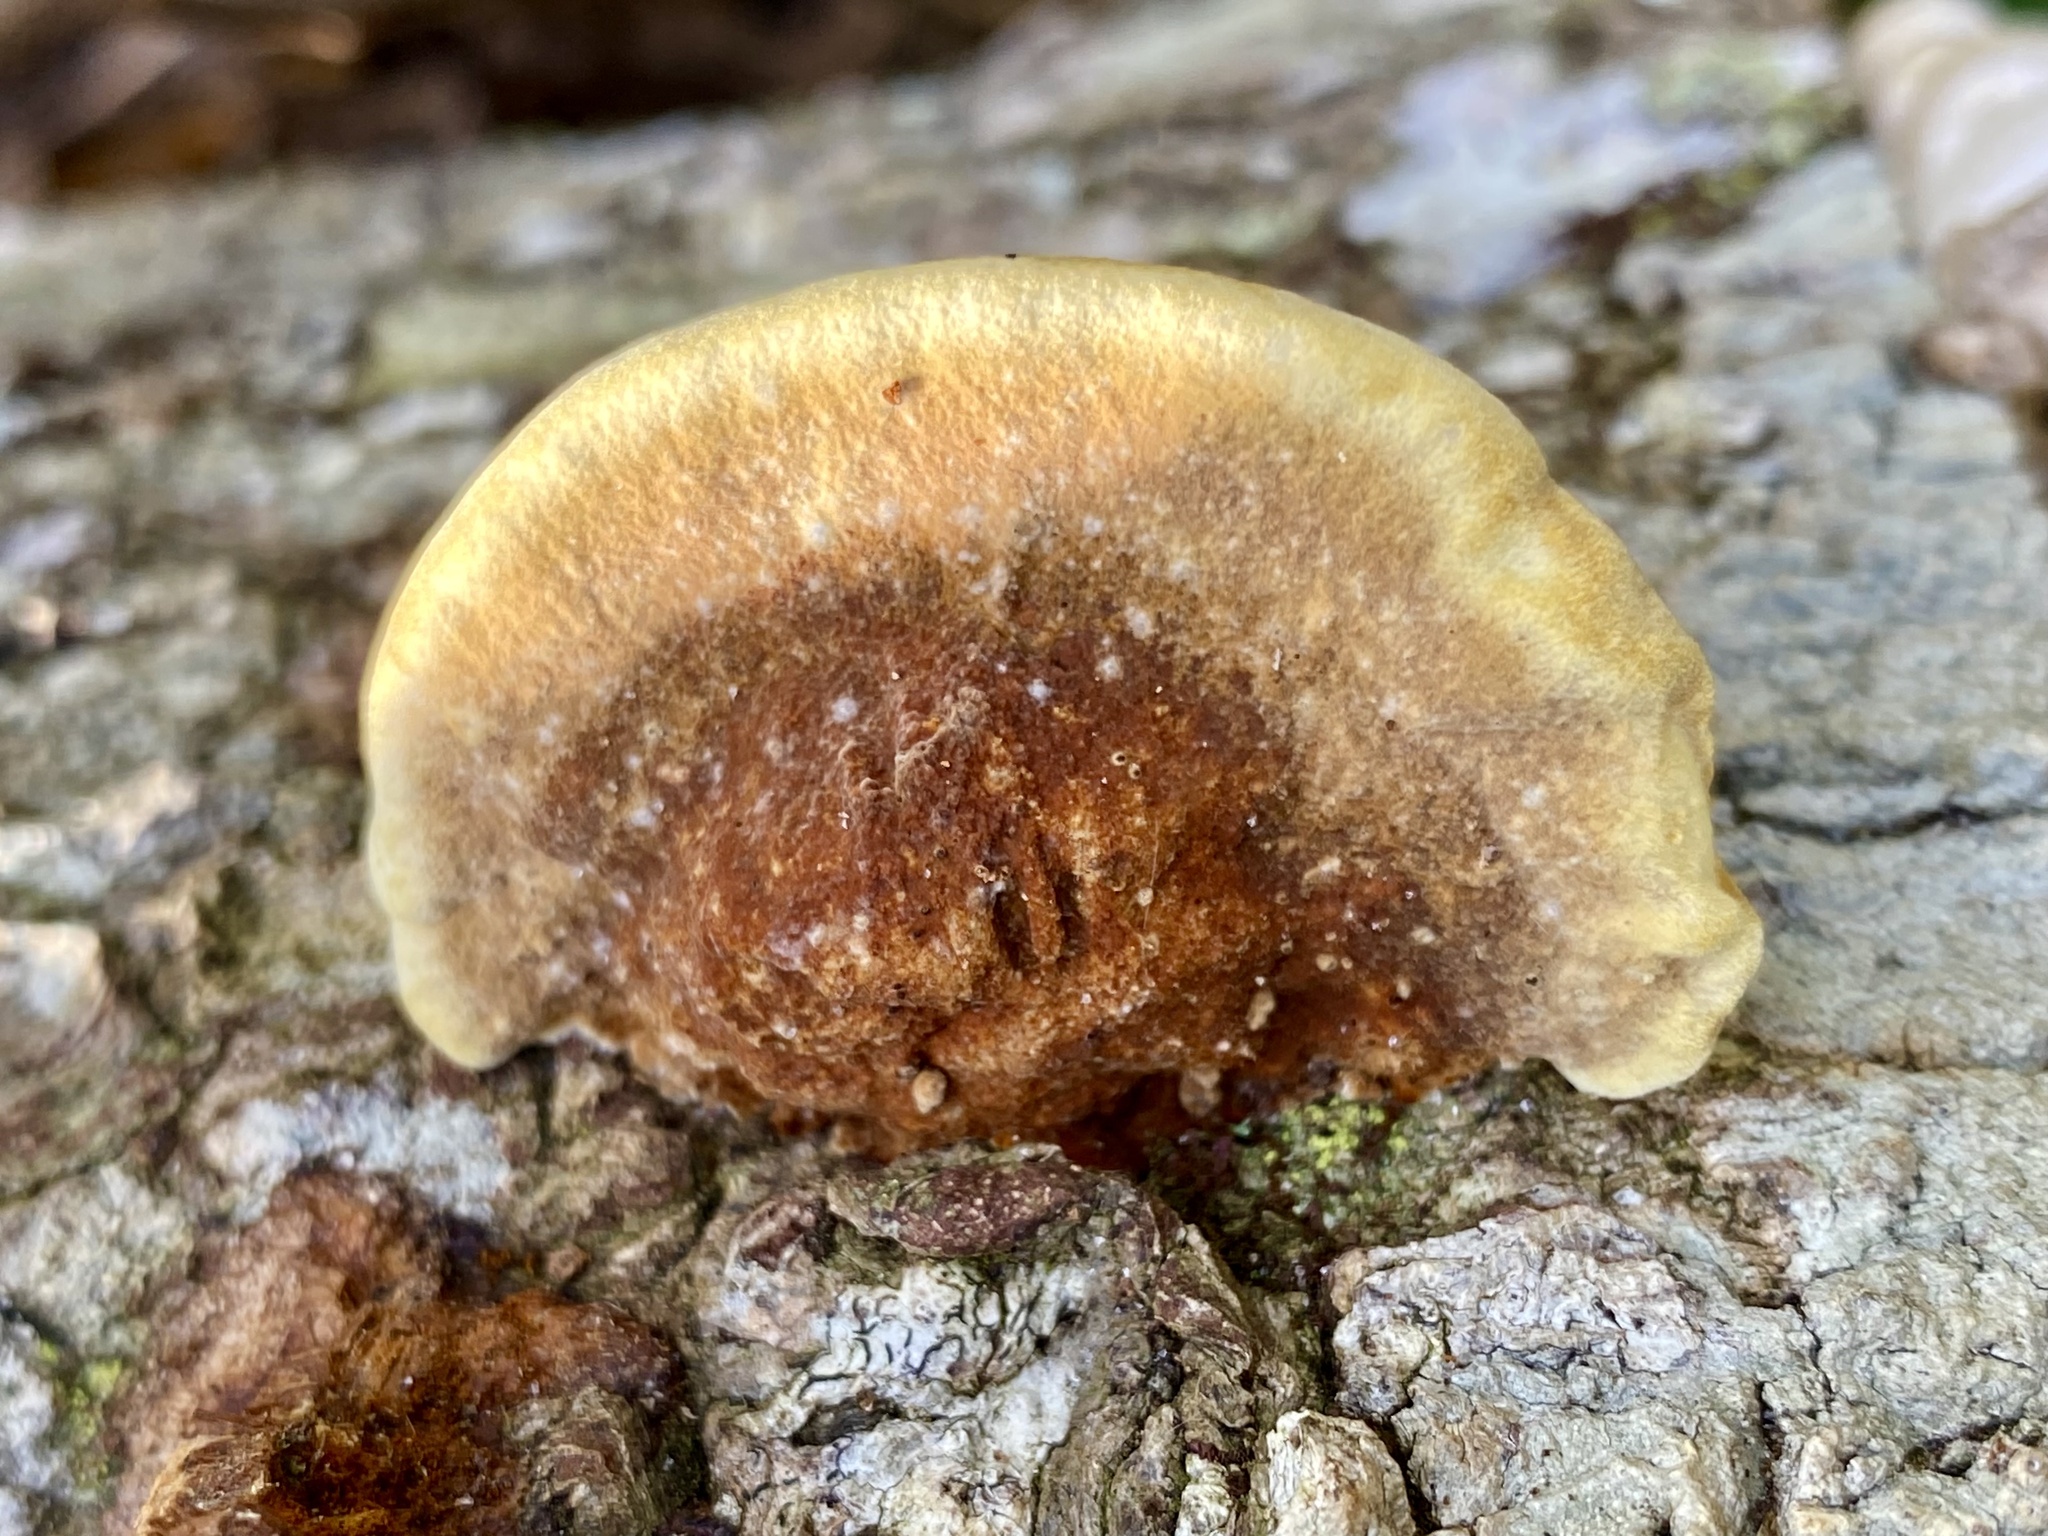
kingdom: Fungi
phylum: Basidiomycota
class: Agaricomycetes
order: Hymenochaetales
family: Hymenochaetaceae
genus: Phellinus
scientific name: Phellinus gilvus
